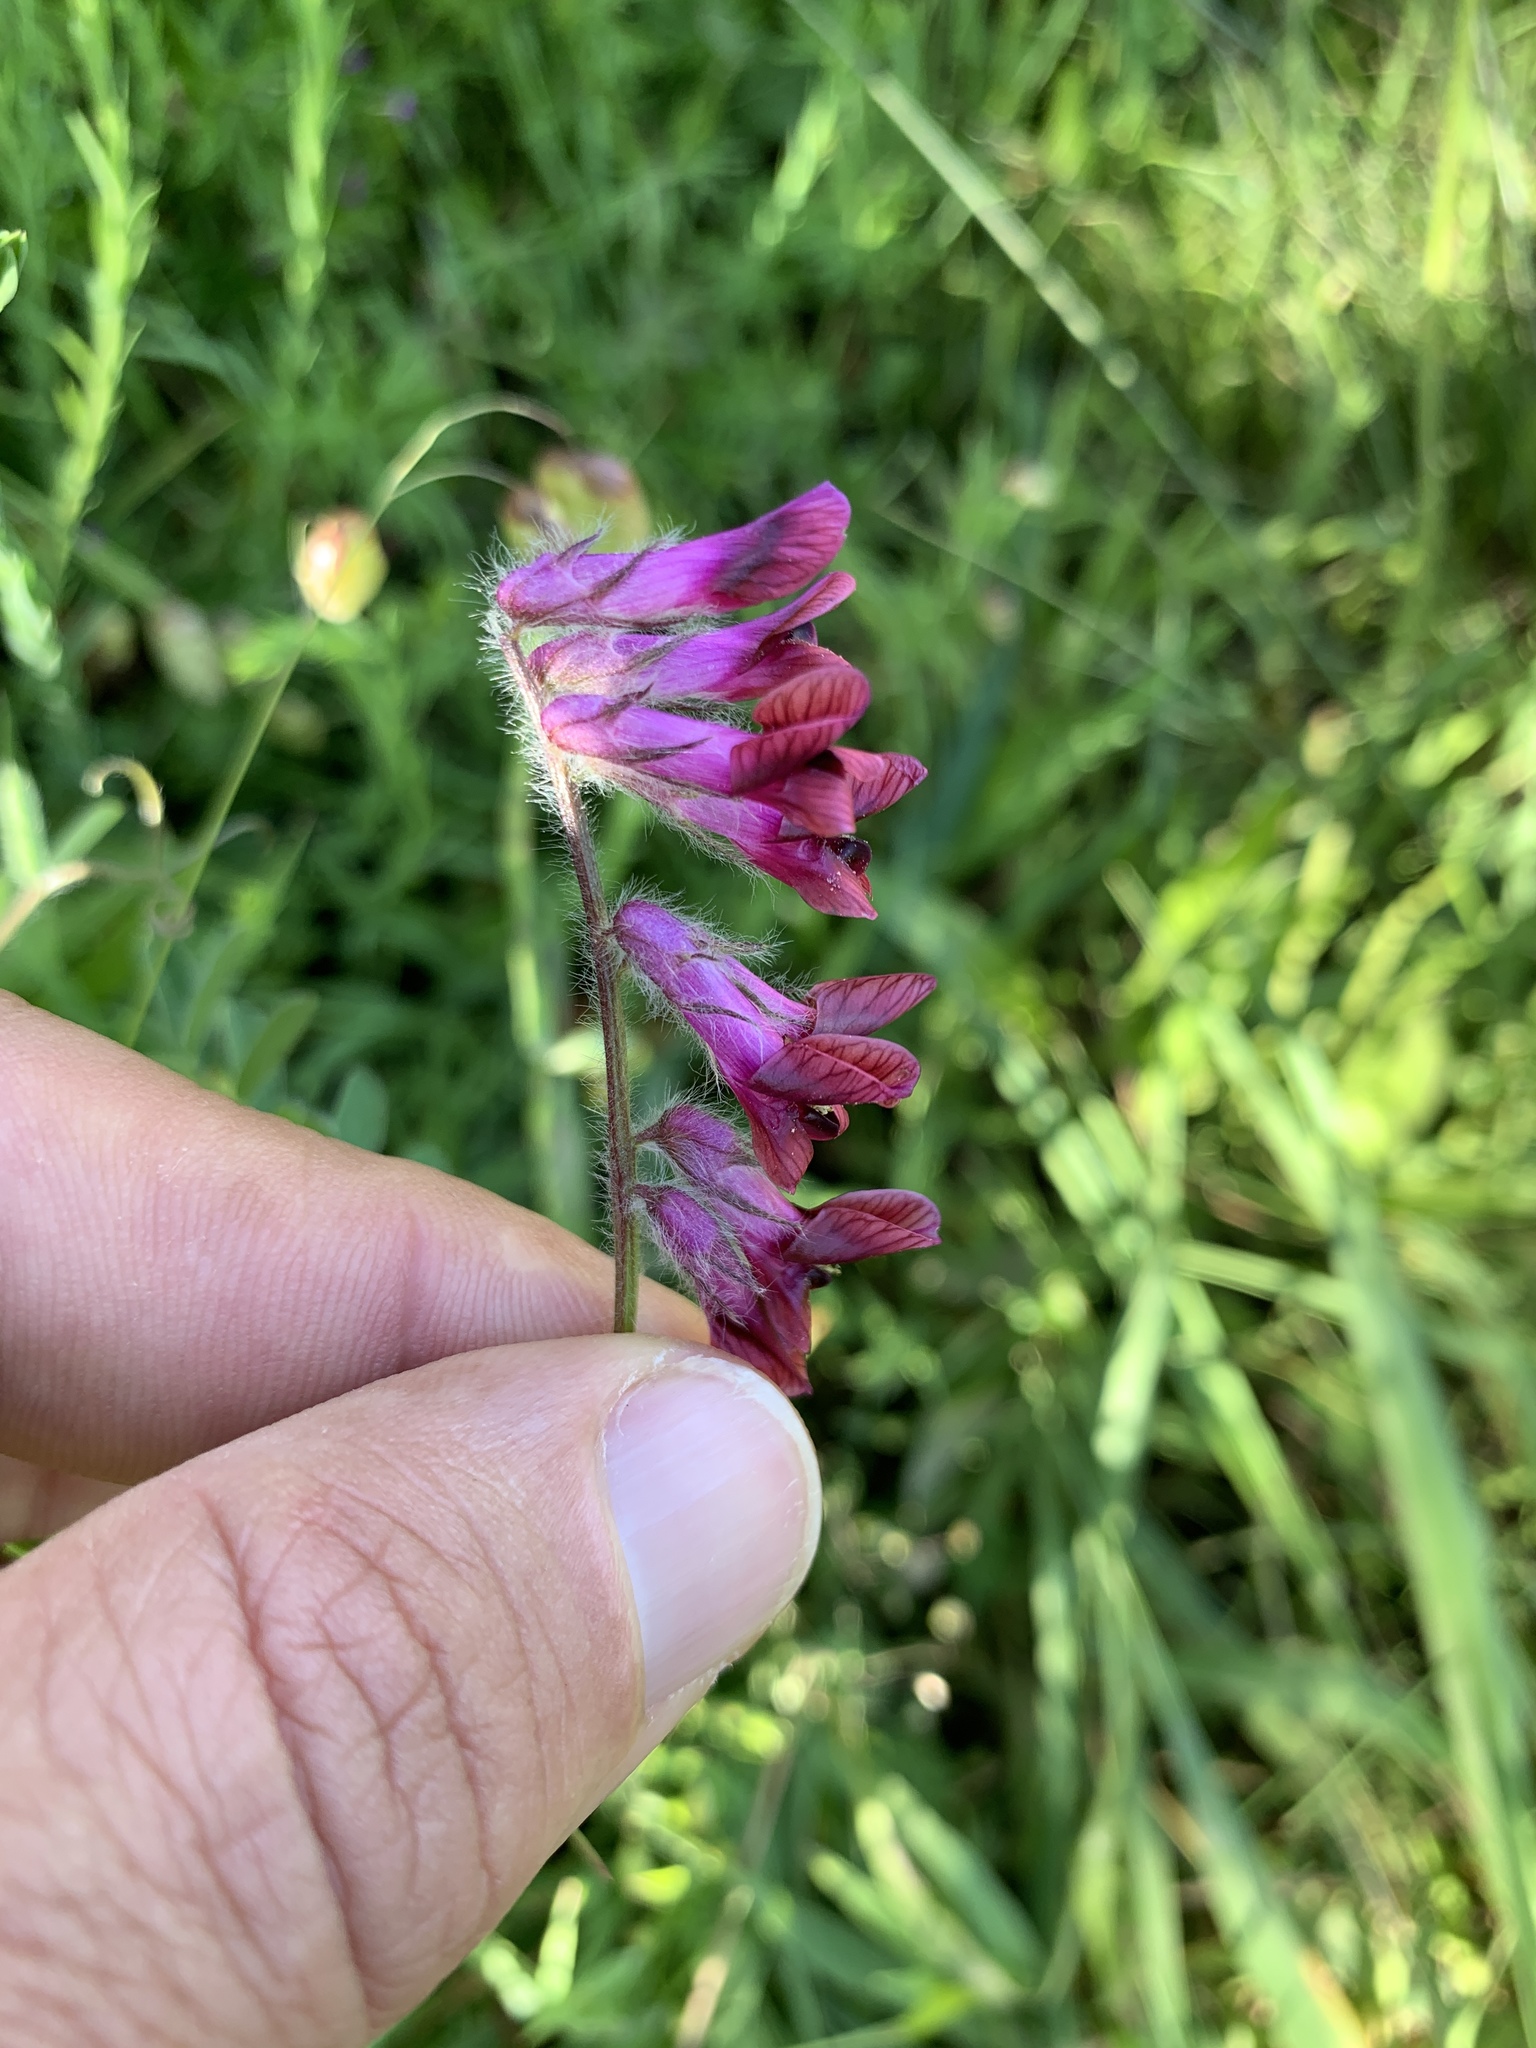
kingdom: Plantae
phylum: Tracheophyta
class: Magnoliopsida
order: Fabales
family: Fabaceae
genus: Vicia
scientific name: Vicia benghalensis
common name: Purple vetch
